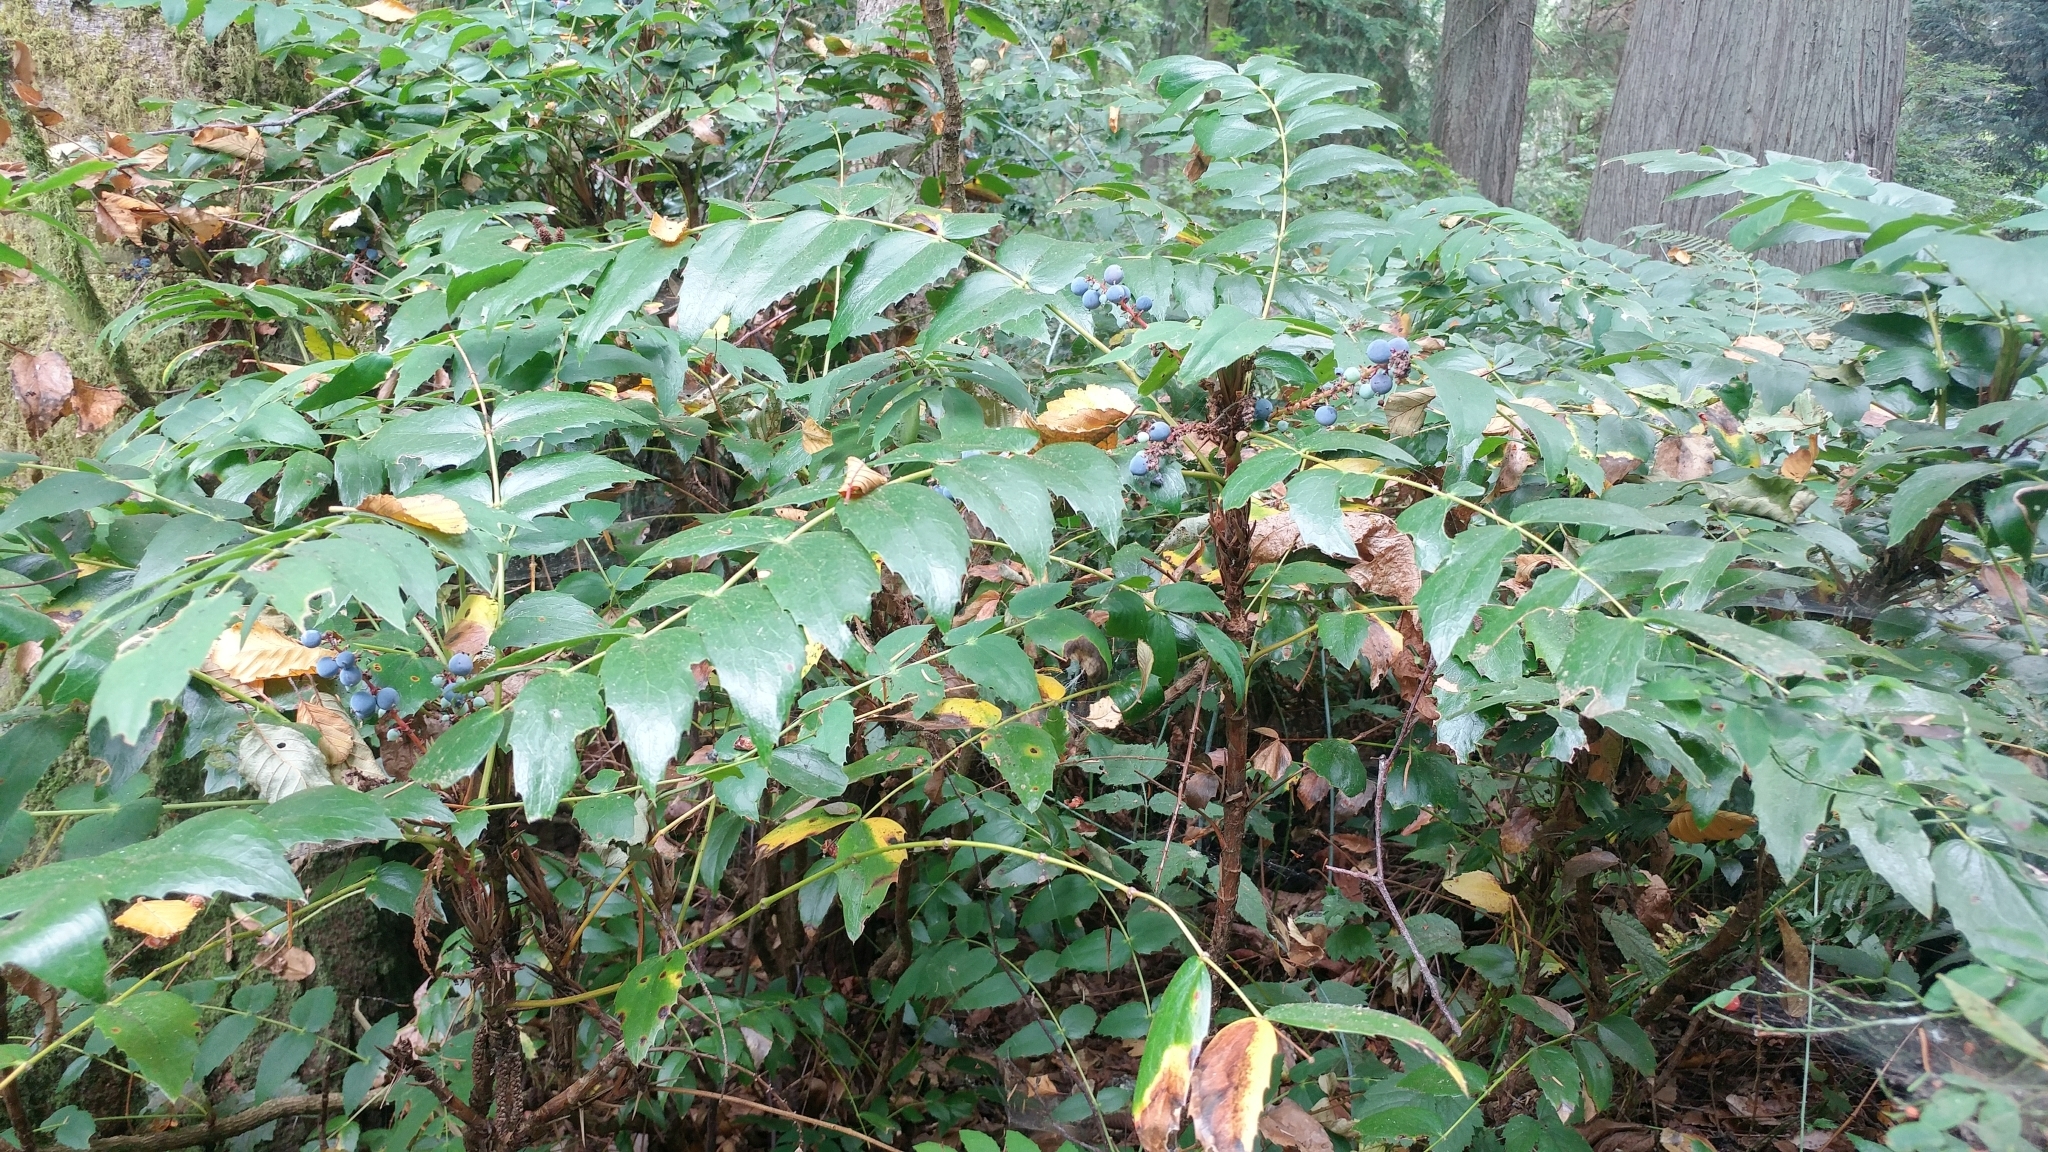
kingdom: Plantae
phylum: Tracheophyta
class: Magnoliopsida
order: Ranunculales
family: Berberidaceae
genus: Mahonia
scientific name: Mahonia nervosa
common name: Cascade oregon-grape
